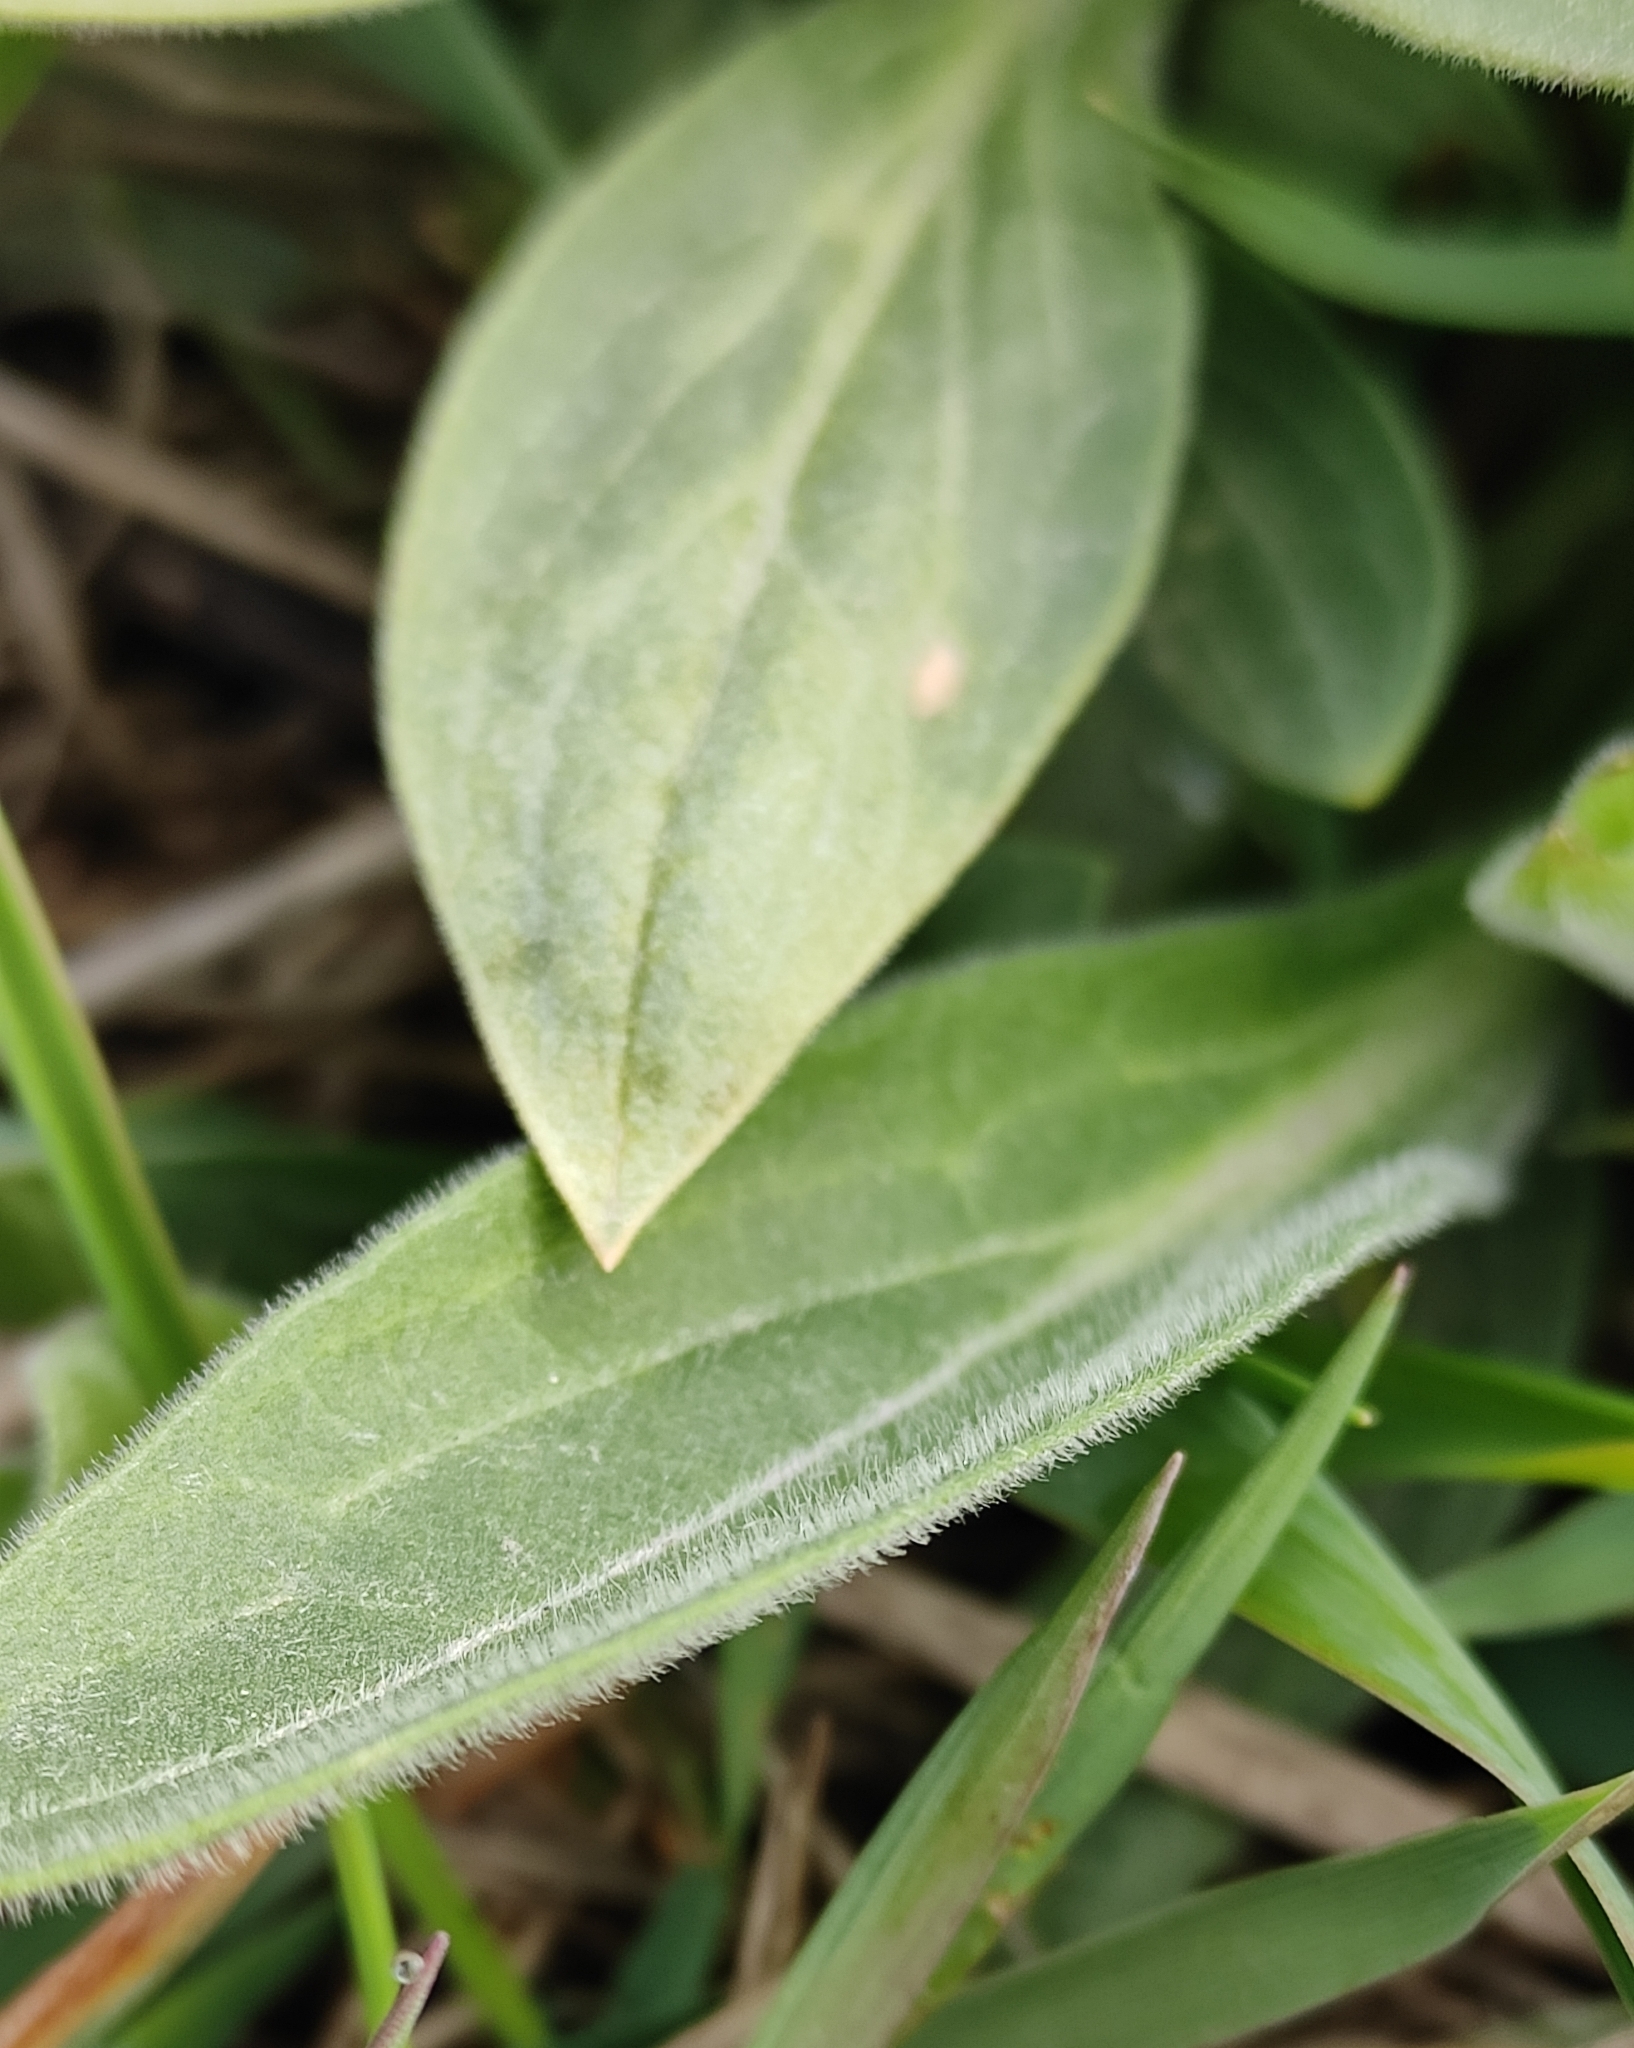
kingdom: Plantae
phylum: Tracheophyta
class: Magnoliopsida
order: Caryophyllales
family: Caryophyllaceae
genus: Silene
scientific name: Silene latifolia
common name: White campion
